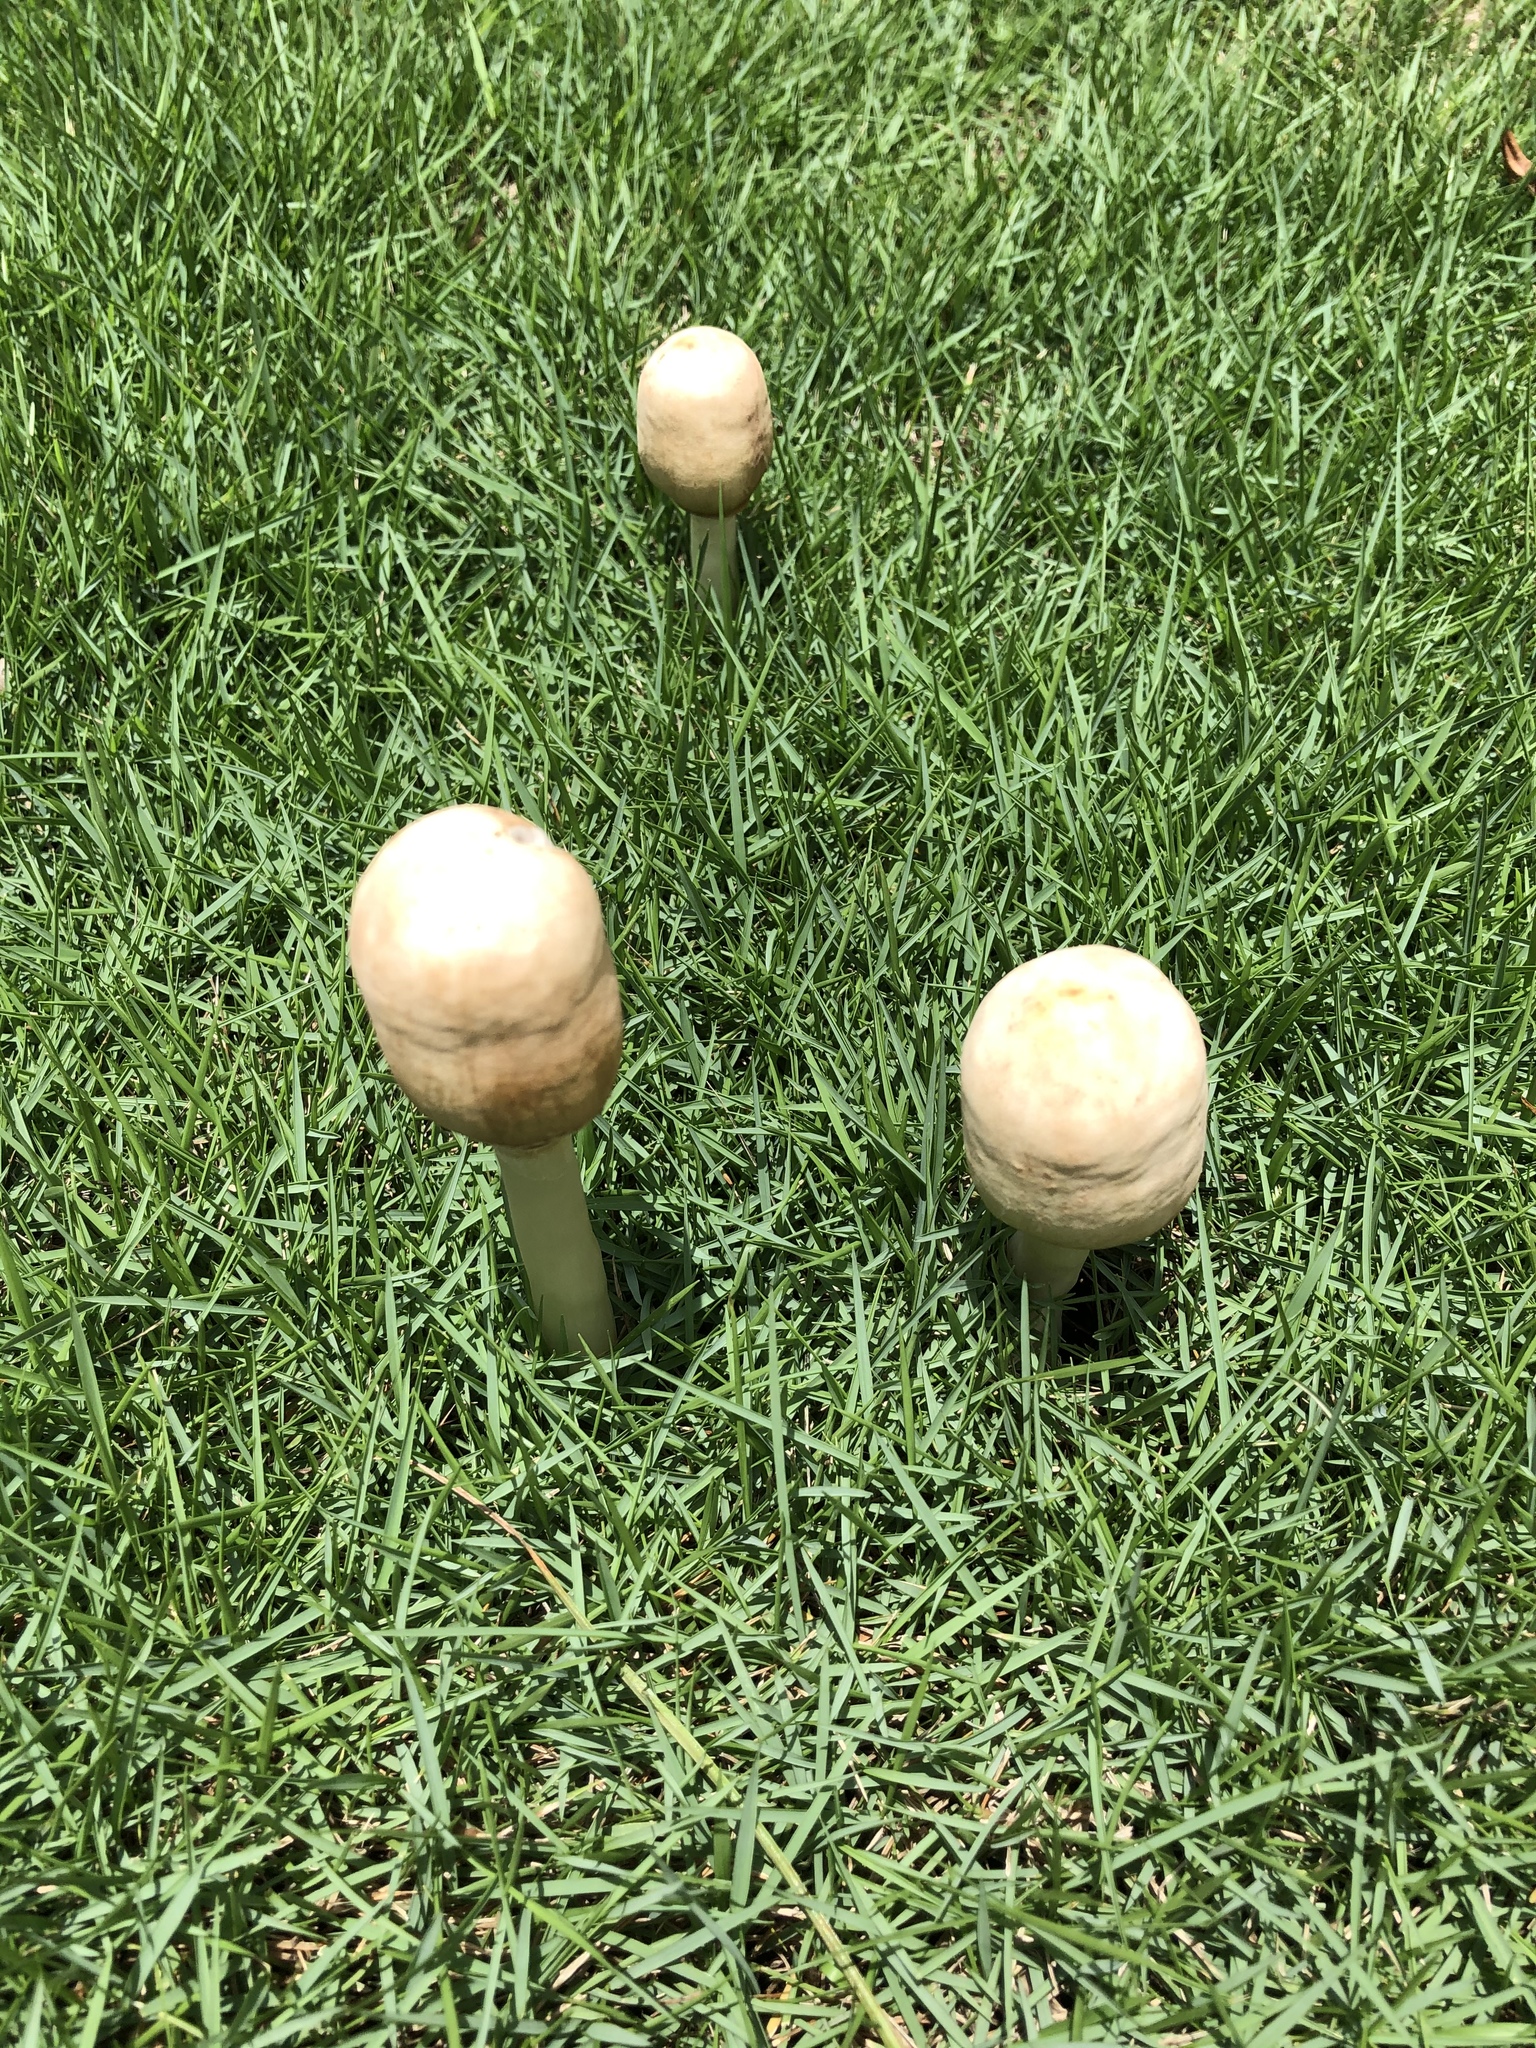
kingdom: Fungi
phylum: Basidiomycota
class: Agaricomycetes
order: Agaricales
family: Agaricaceae
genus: Chlorophyllum
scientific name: Chlorophyllum molybdites
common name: False parasol
